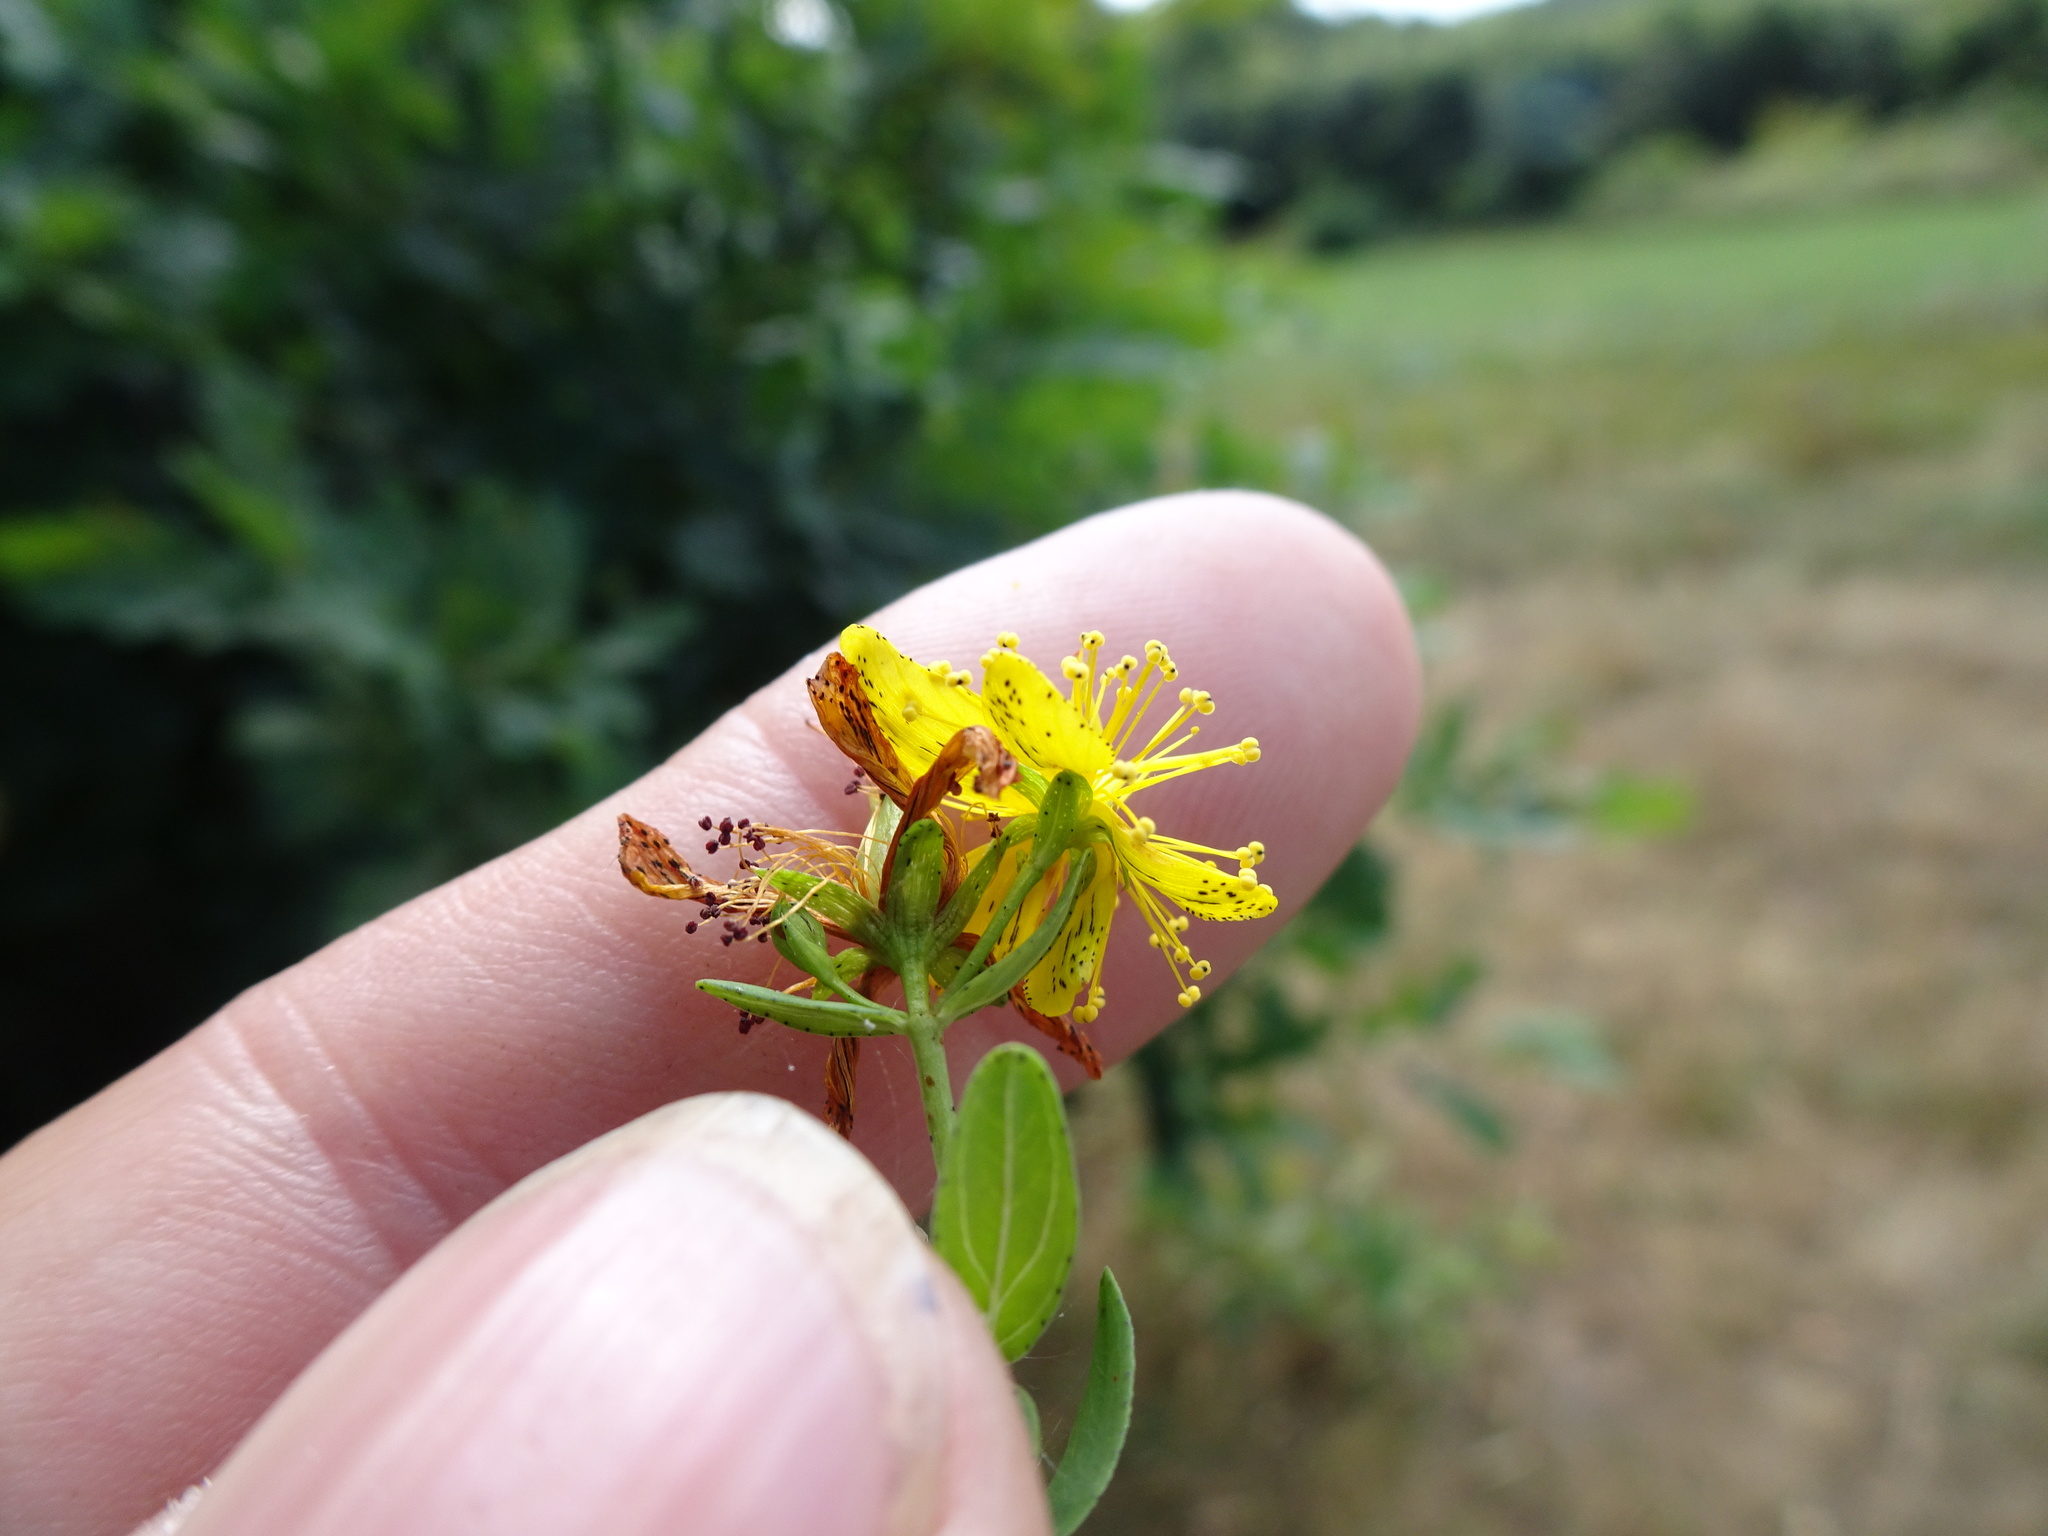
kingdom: Plantae
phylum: Tracheophyta
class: Magnoliopsida
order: Malpighiales
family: Hypericaceae
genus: Hypericum
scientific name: Hypericum dubium
